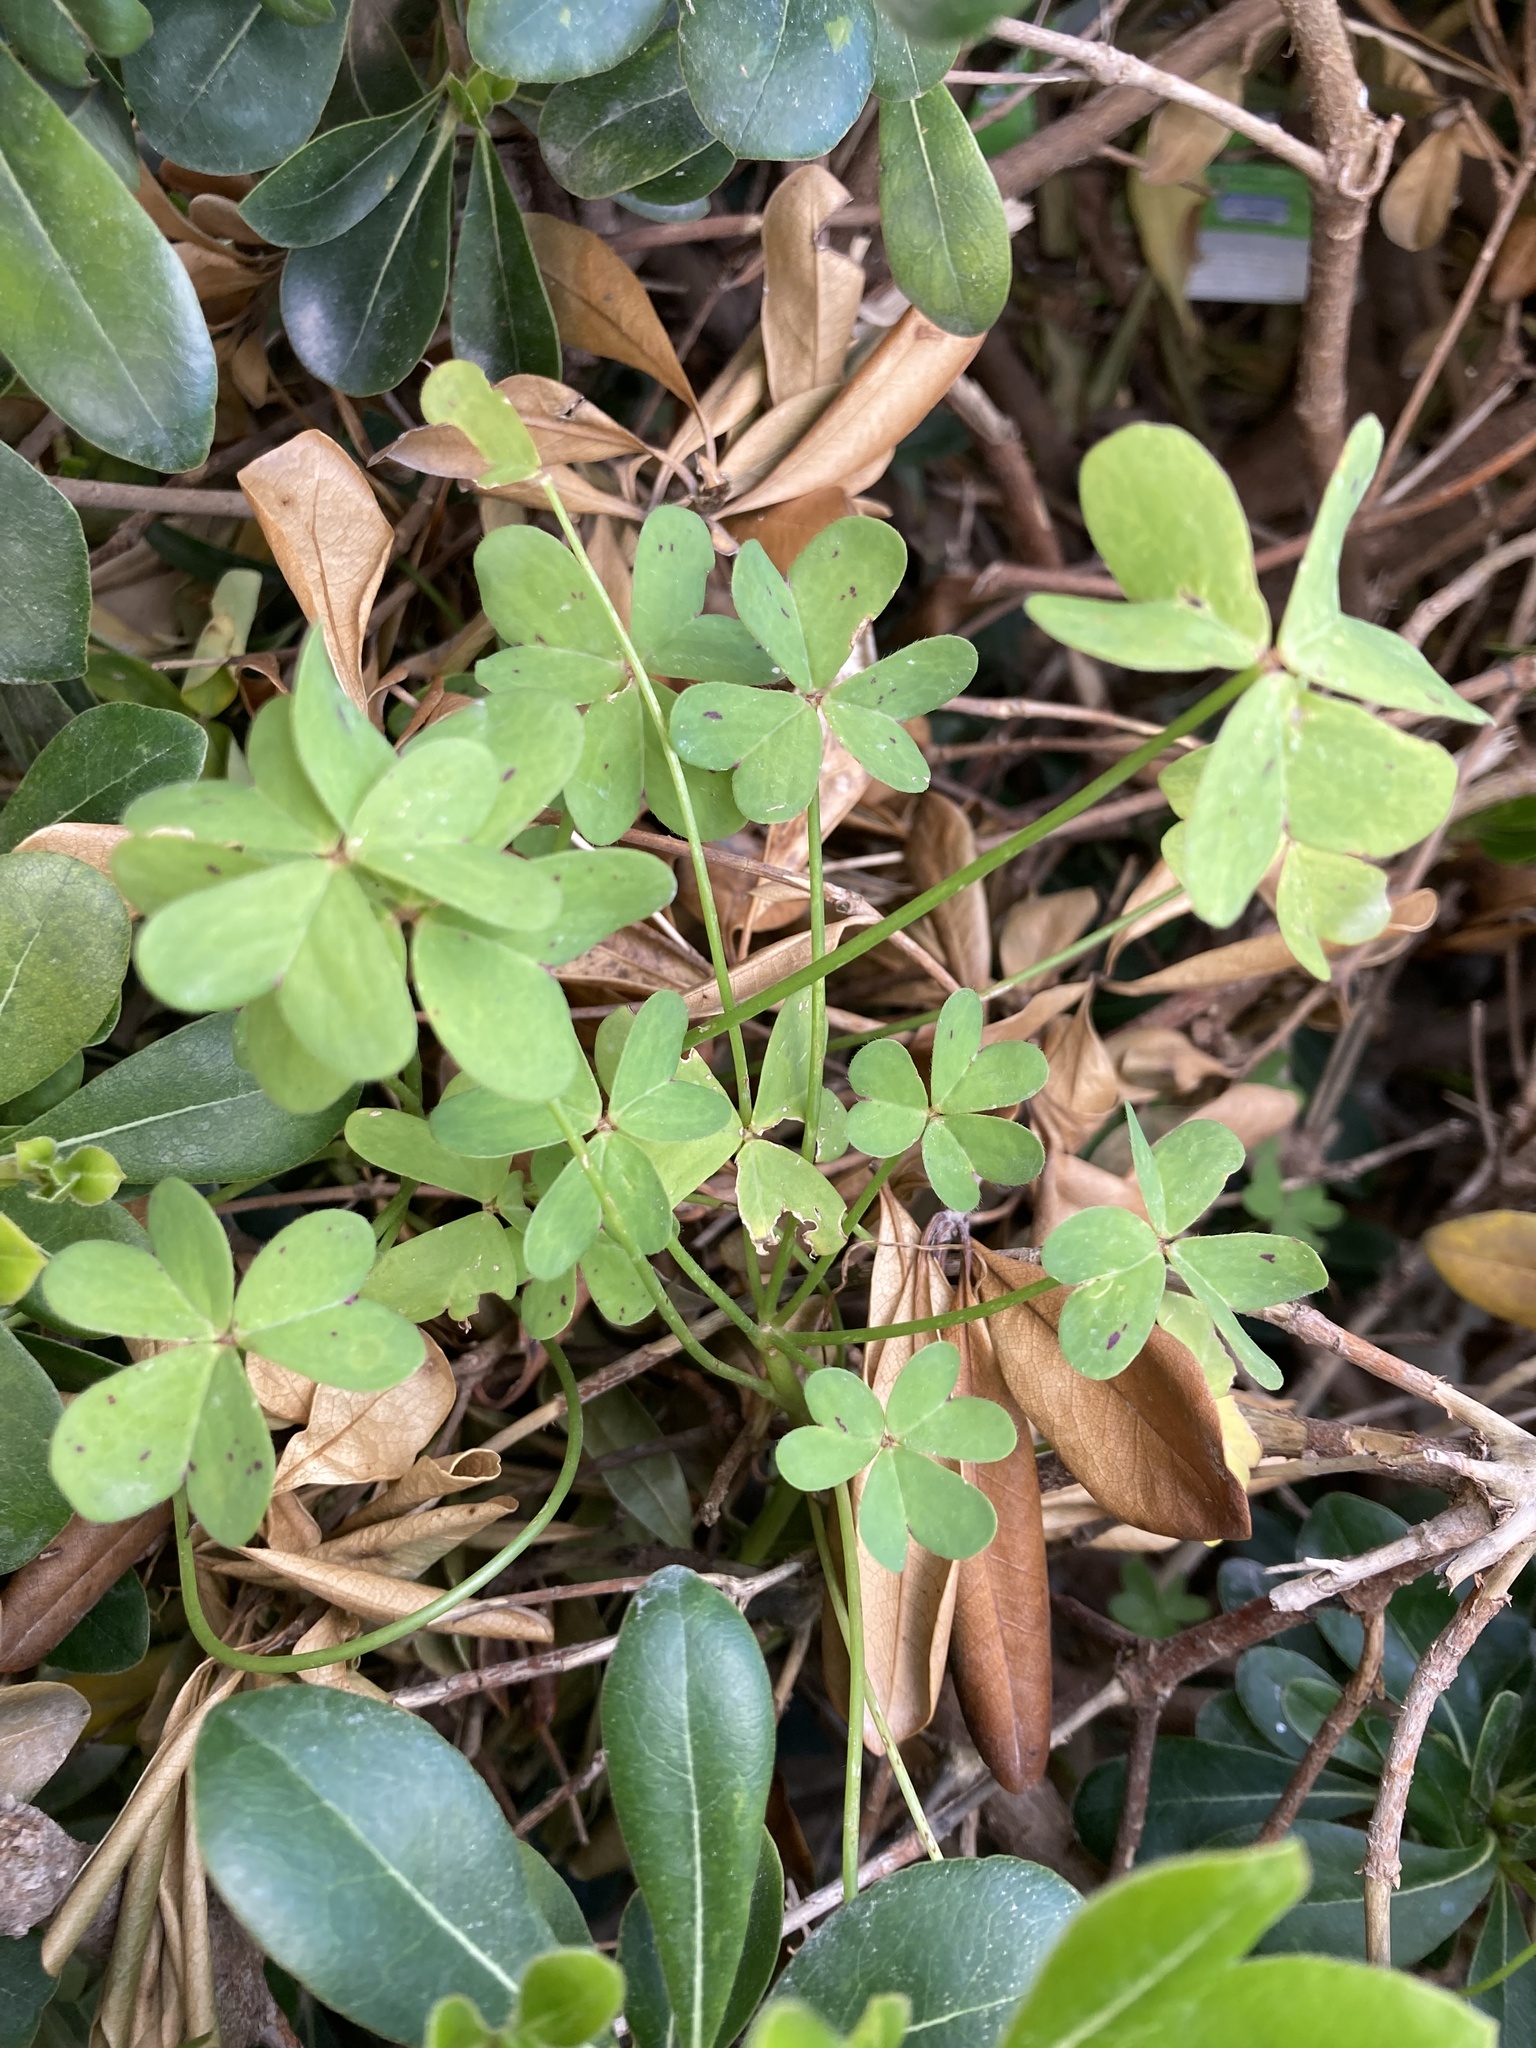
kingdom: Plantae
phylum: Tracheophyta
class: Magnoliopsida
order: Oxalidales
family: Oxalidaceae
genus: Oxalis
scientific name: Oxalis pes-caprae
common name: Bermuda-buttercup
